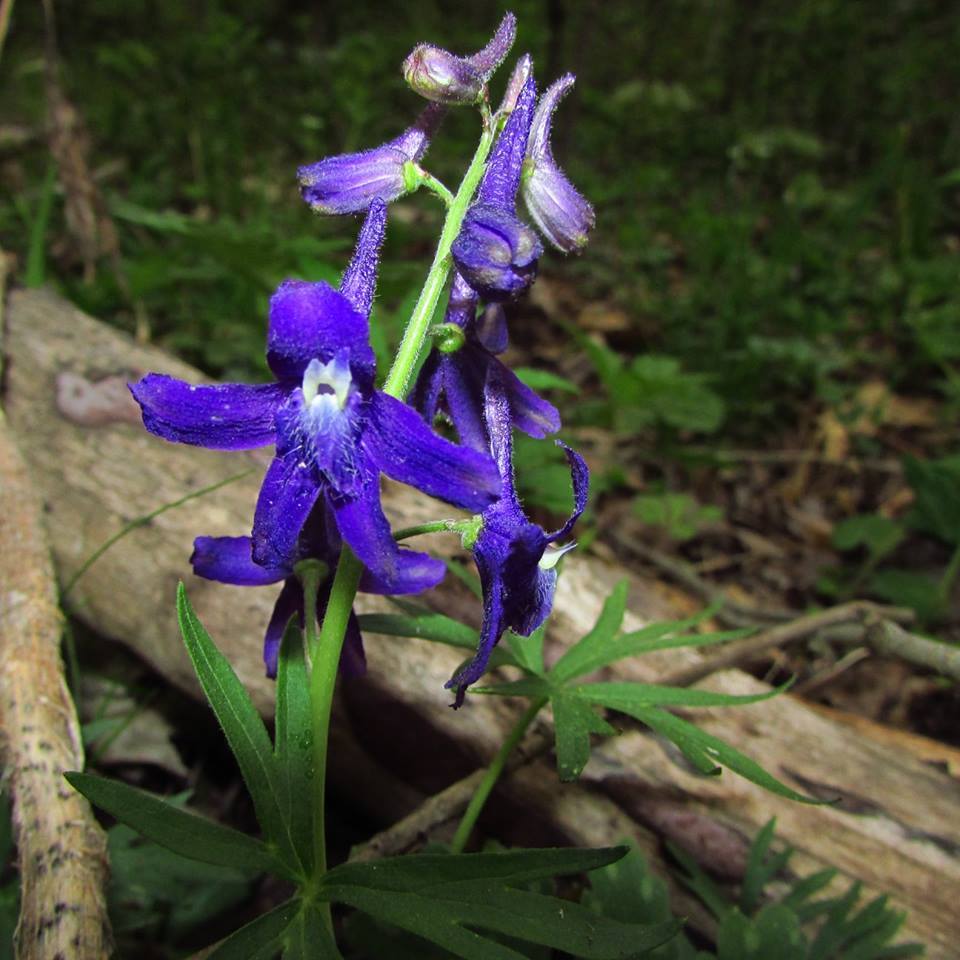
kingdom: Plantae
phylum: Tracheophyta
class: Magnoliopsida
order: Ranunculales
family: Ranunculaceae
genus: Delphinium
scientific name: Delphinium tricorne
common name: Dwarf larkspur
